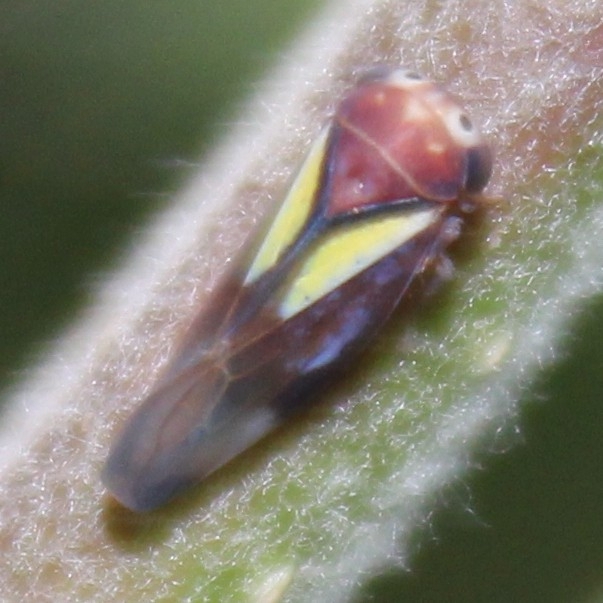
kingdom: Animalia
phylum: Arthropoda
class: Insecta
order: Hemiptera
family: Cicadellidae
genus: Balcanocerus
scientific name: Balcanocerus provancheri
